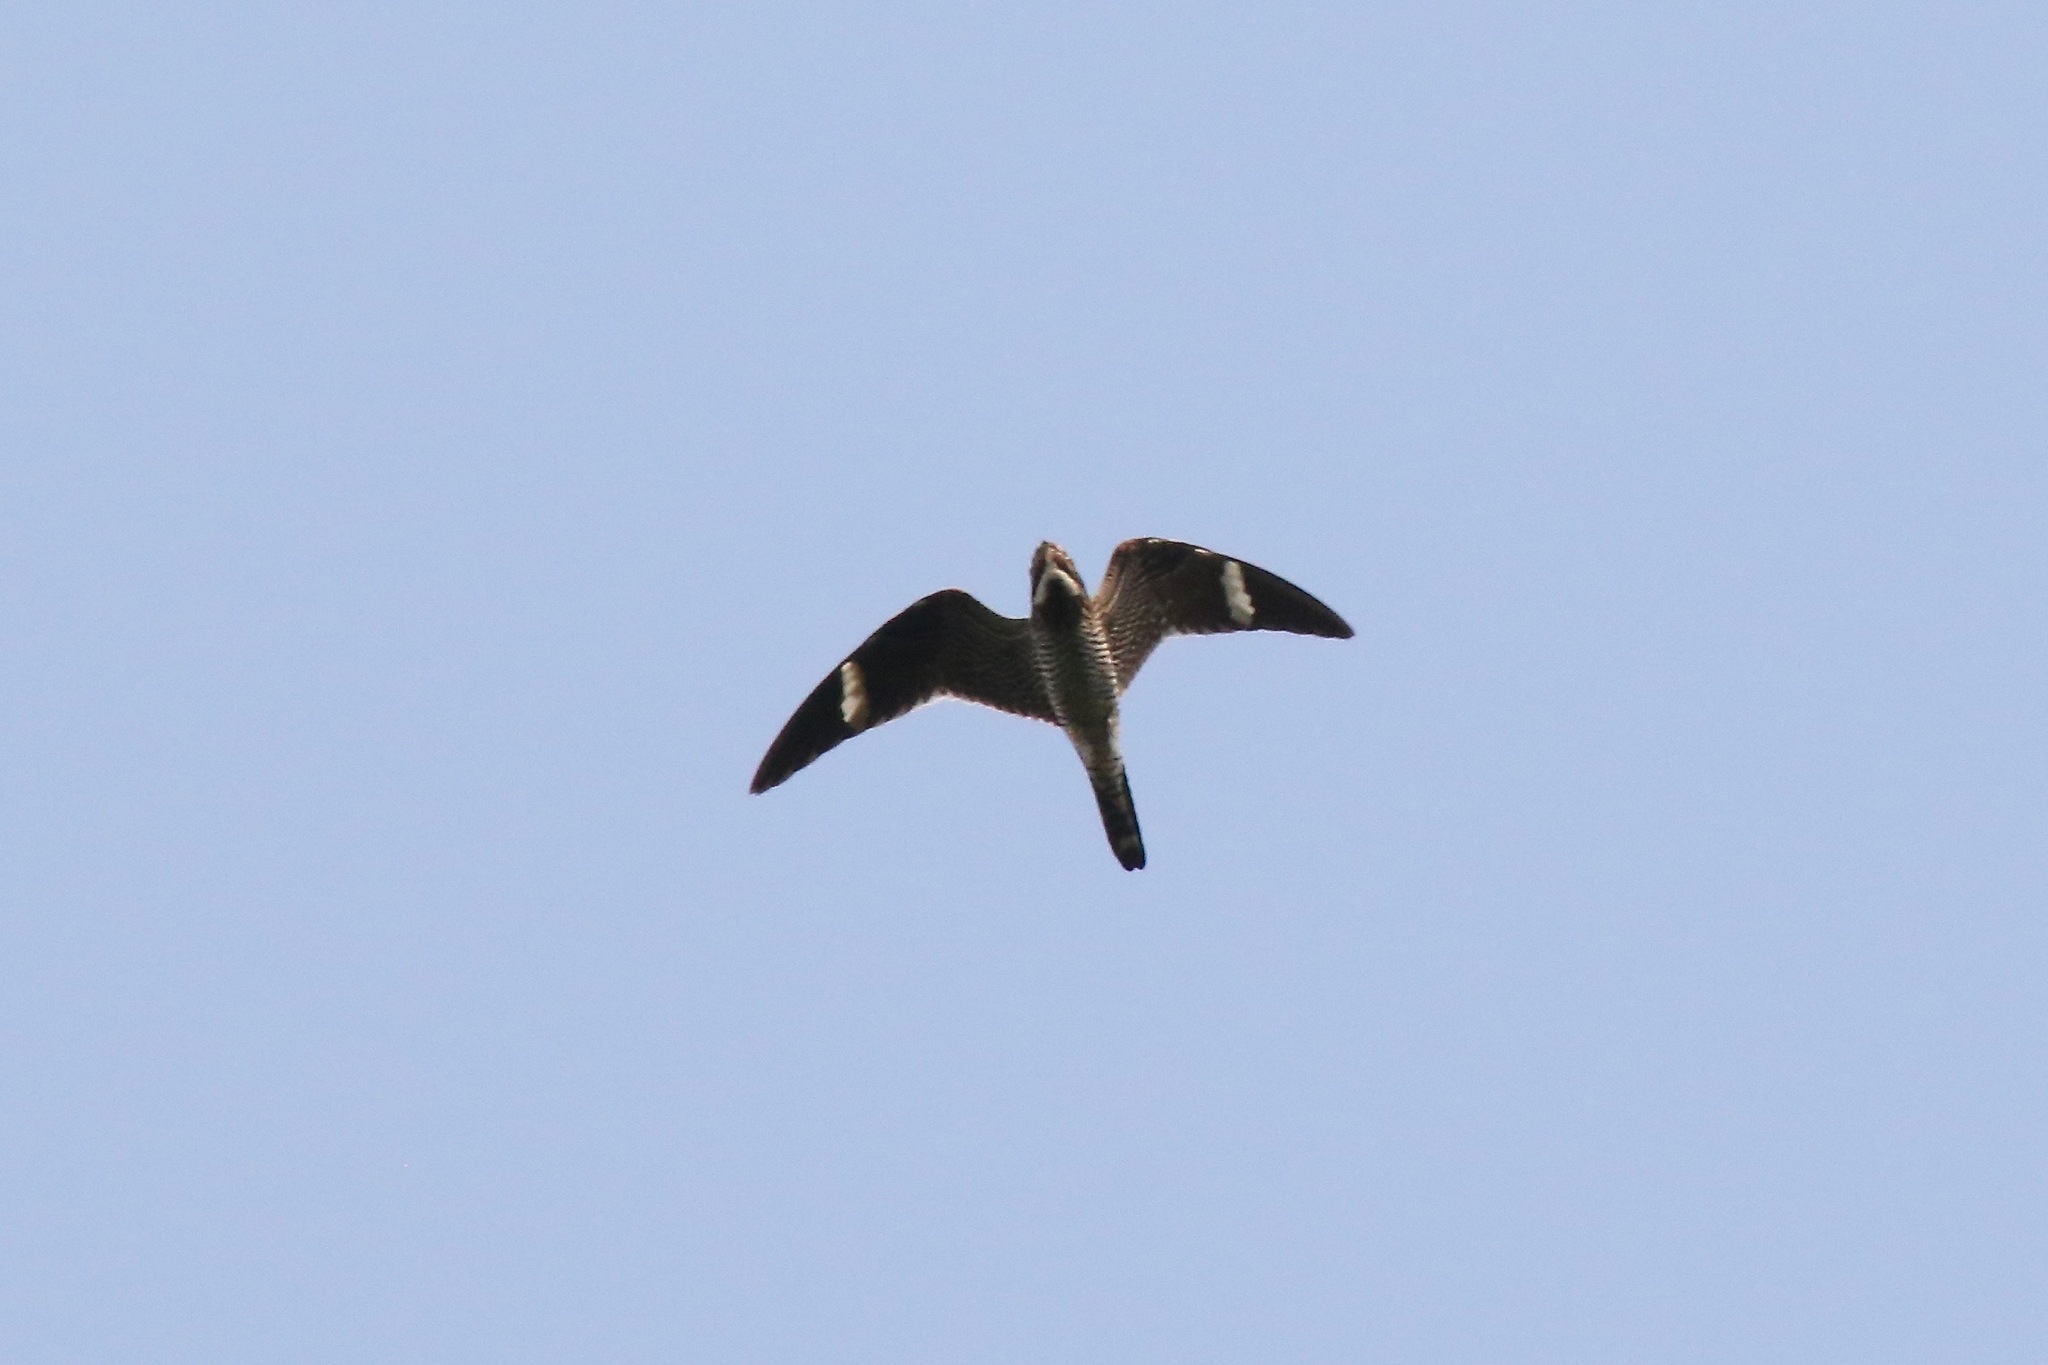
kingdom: Animalia
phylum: Chordata
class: Aves
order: Caprimulgiformes
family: Caprimulgidae
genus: Chordeiles
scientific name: Chordeiles minor
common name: Common nighthawk
